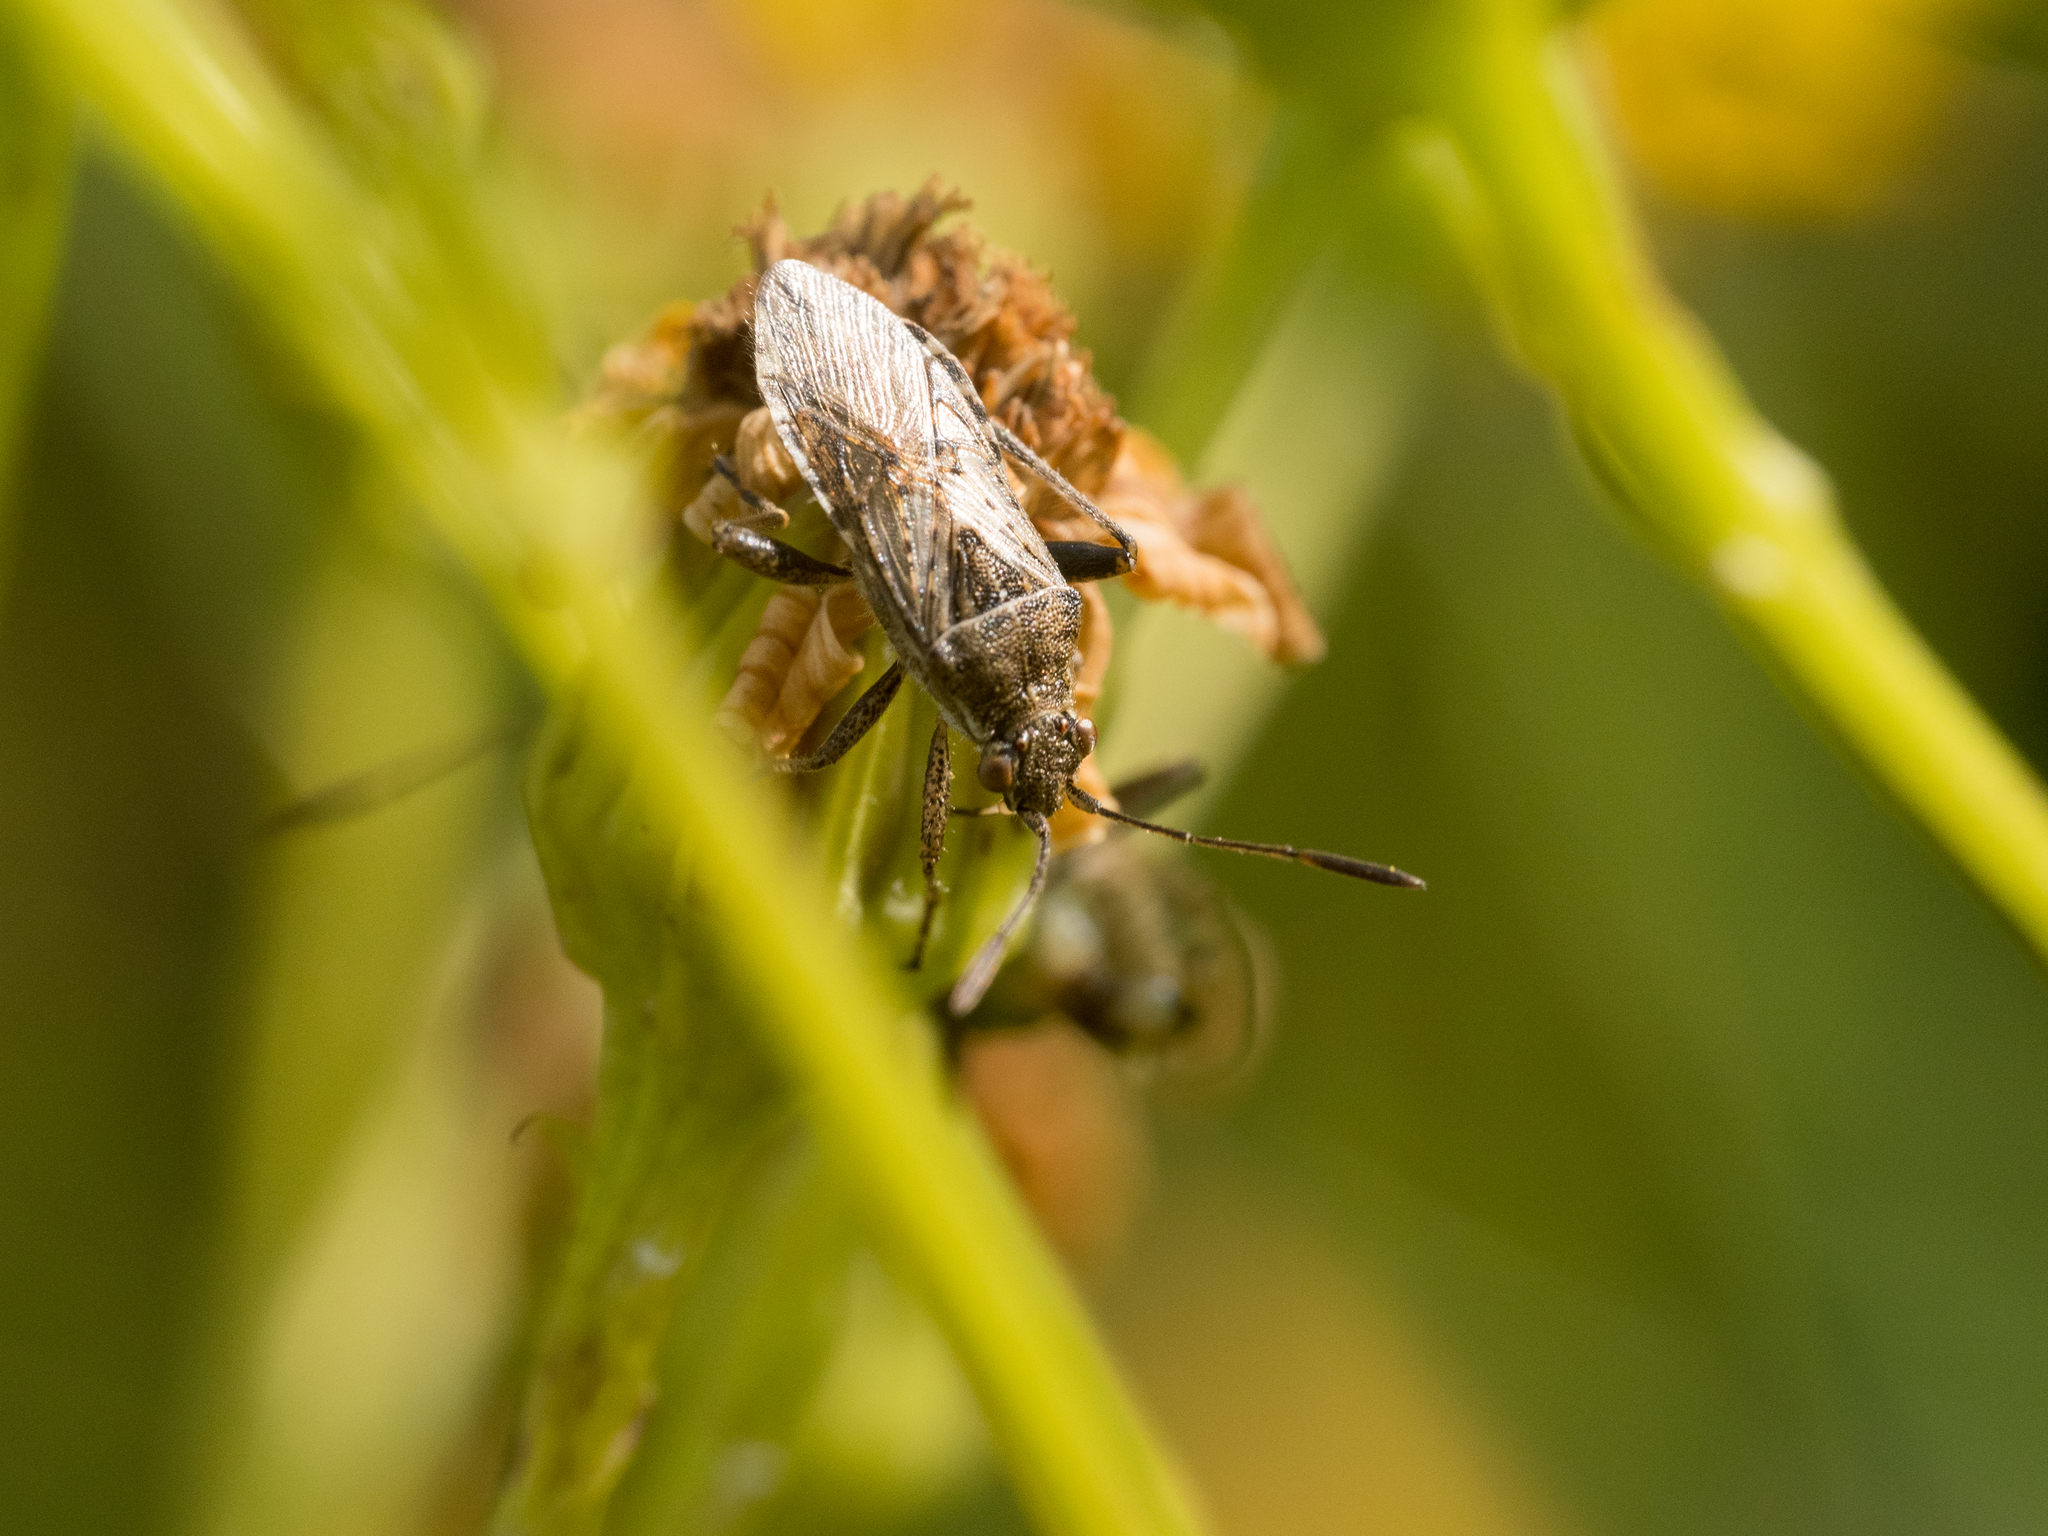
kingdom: Animalia
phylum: Arthropoda
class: Insecta
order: Hemiptera
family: Rhopalidae
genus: Stictopleurus
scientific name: Stictopleurus punctatonervosus
